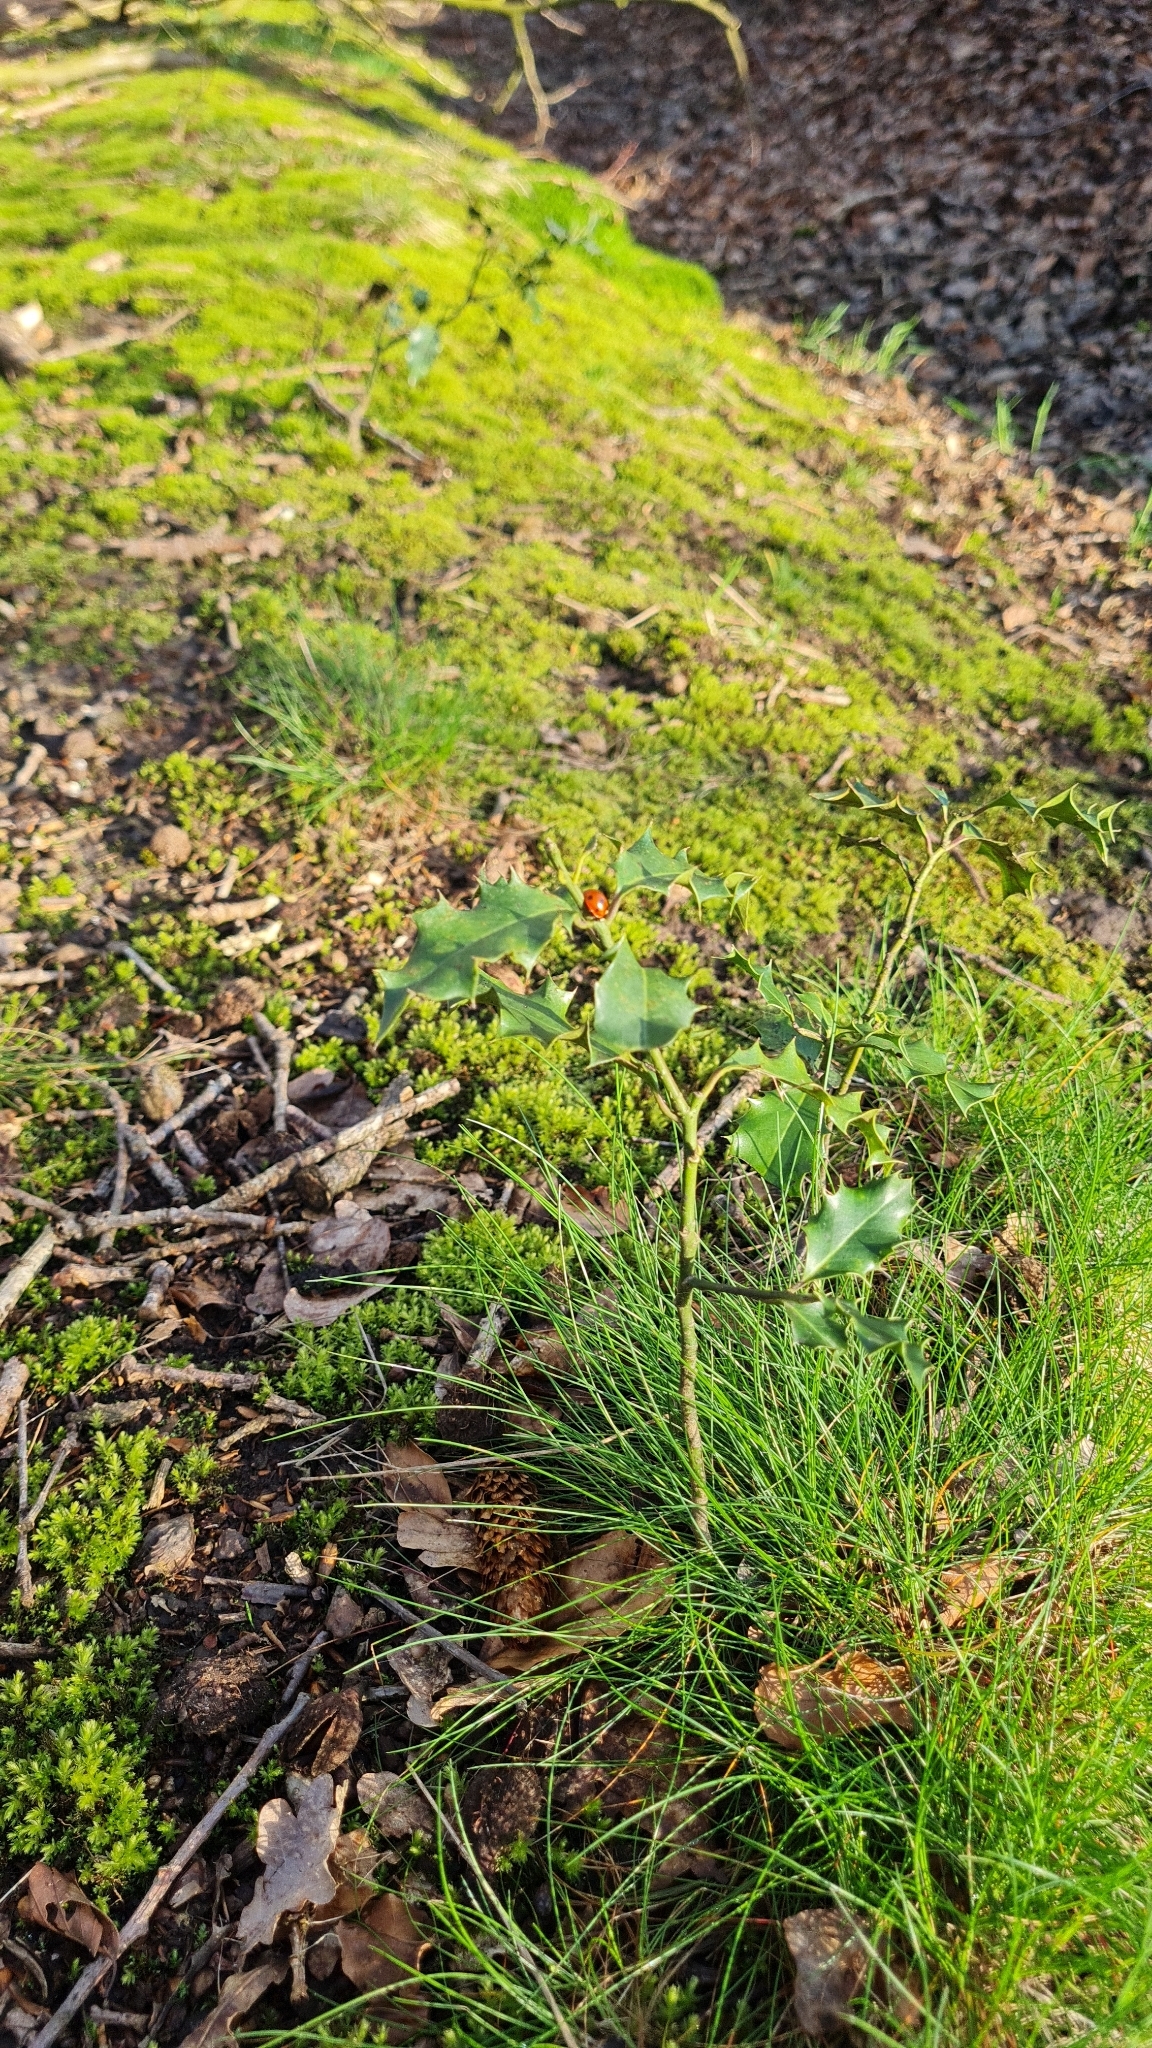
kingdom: Plantae
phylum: Tracheophyta
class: Magnoliopsida
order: Aquifoliales
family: Aquifoliaceae
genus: Ilex
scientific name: Ilex aquifolium
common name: English holly
